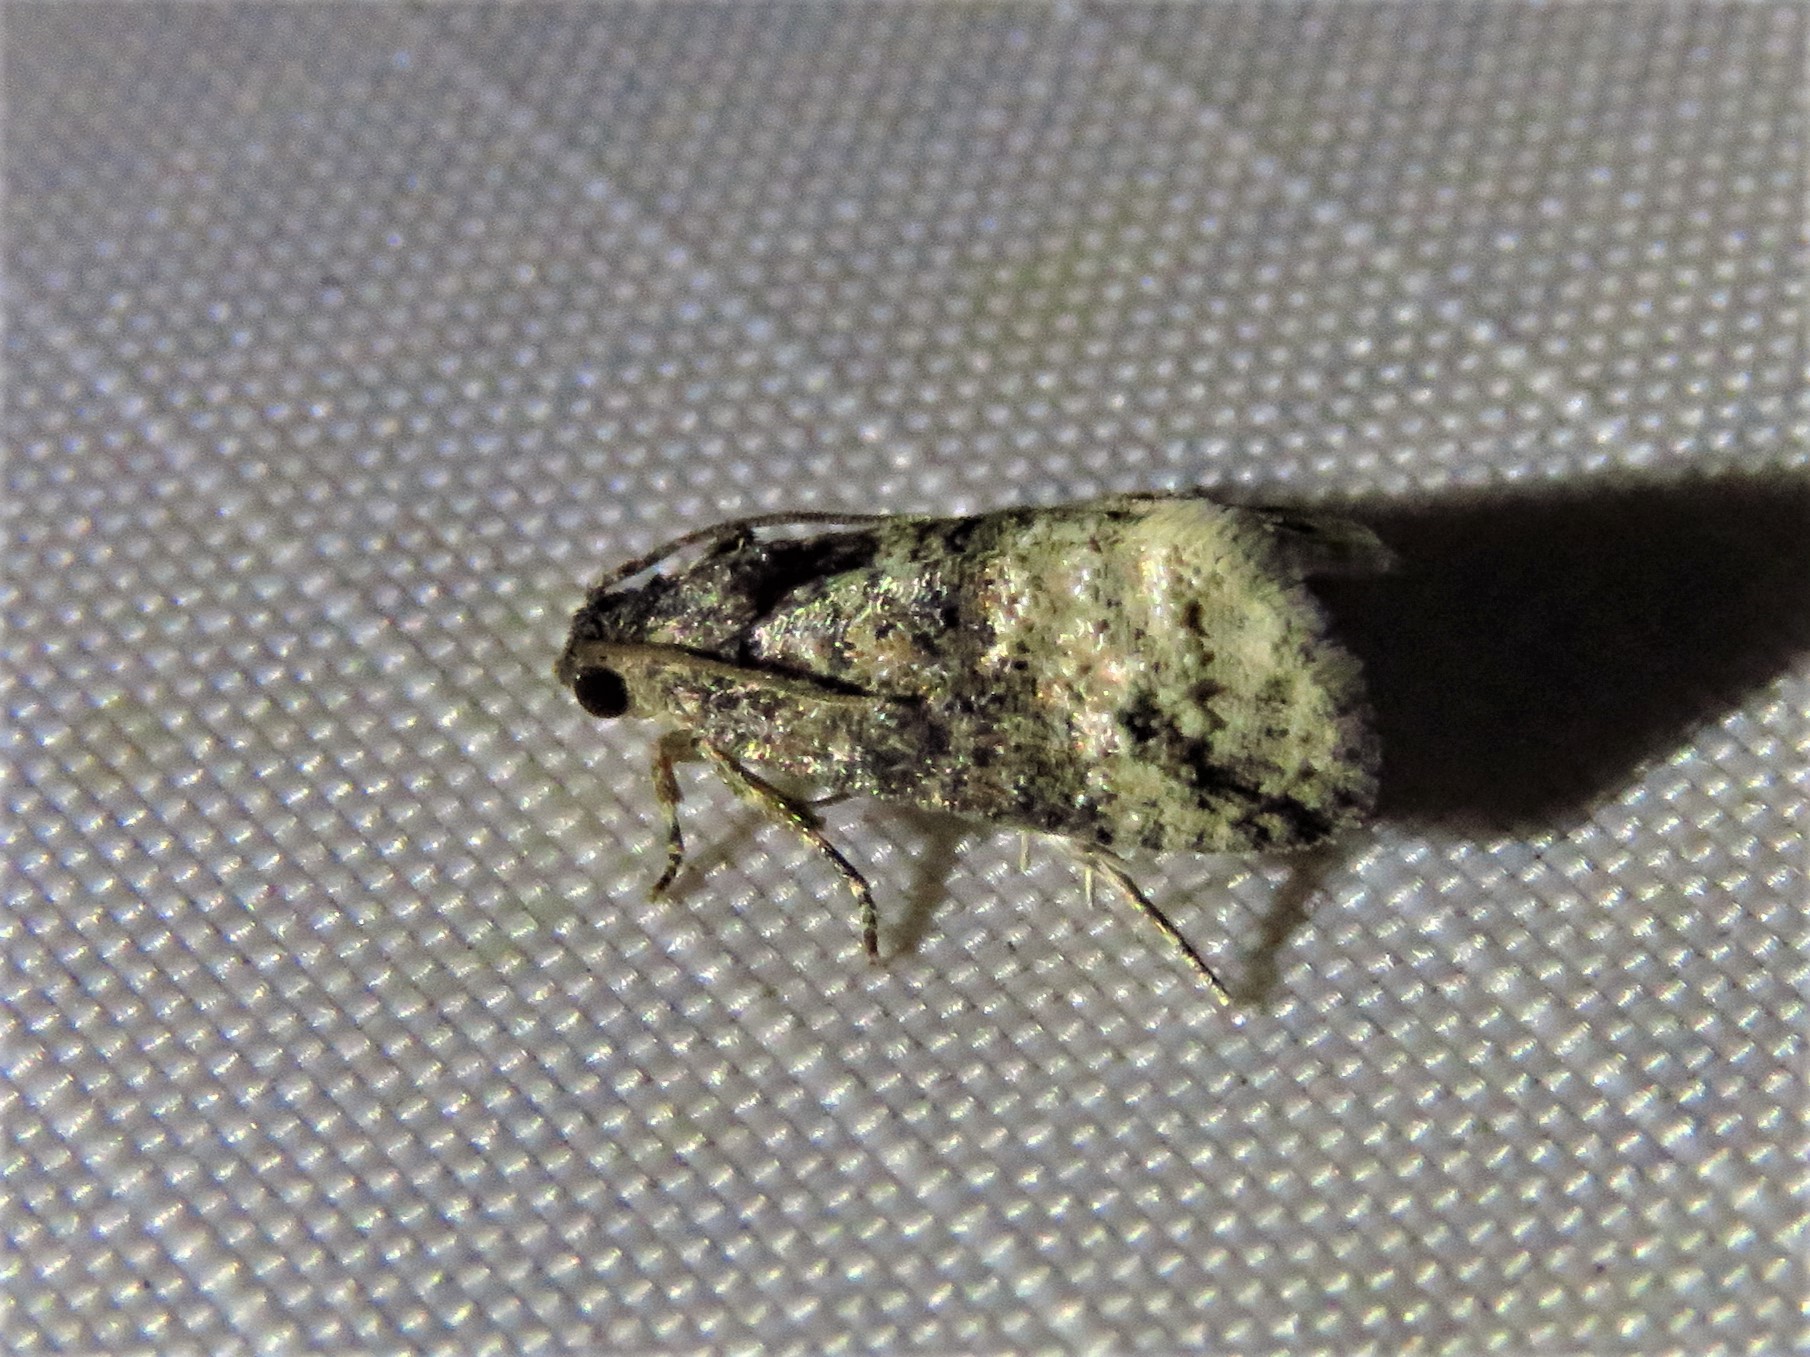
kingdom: Animalia
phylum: Arthropoda
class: Insecta
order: Lepidoptera
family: Tortricidae
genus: Ecdytolopha
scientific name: Ecdytolopha mana
